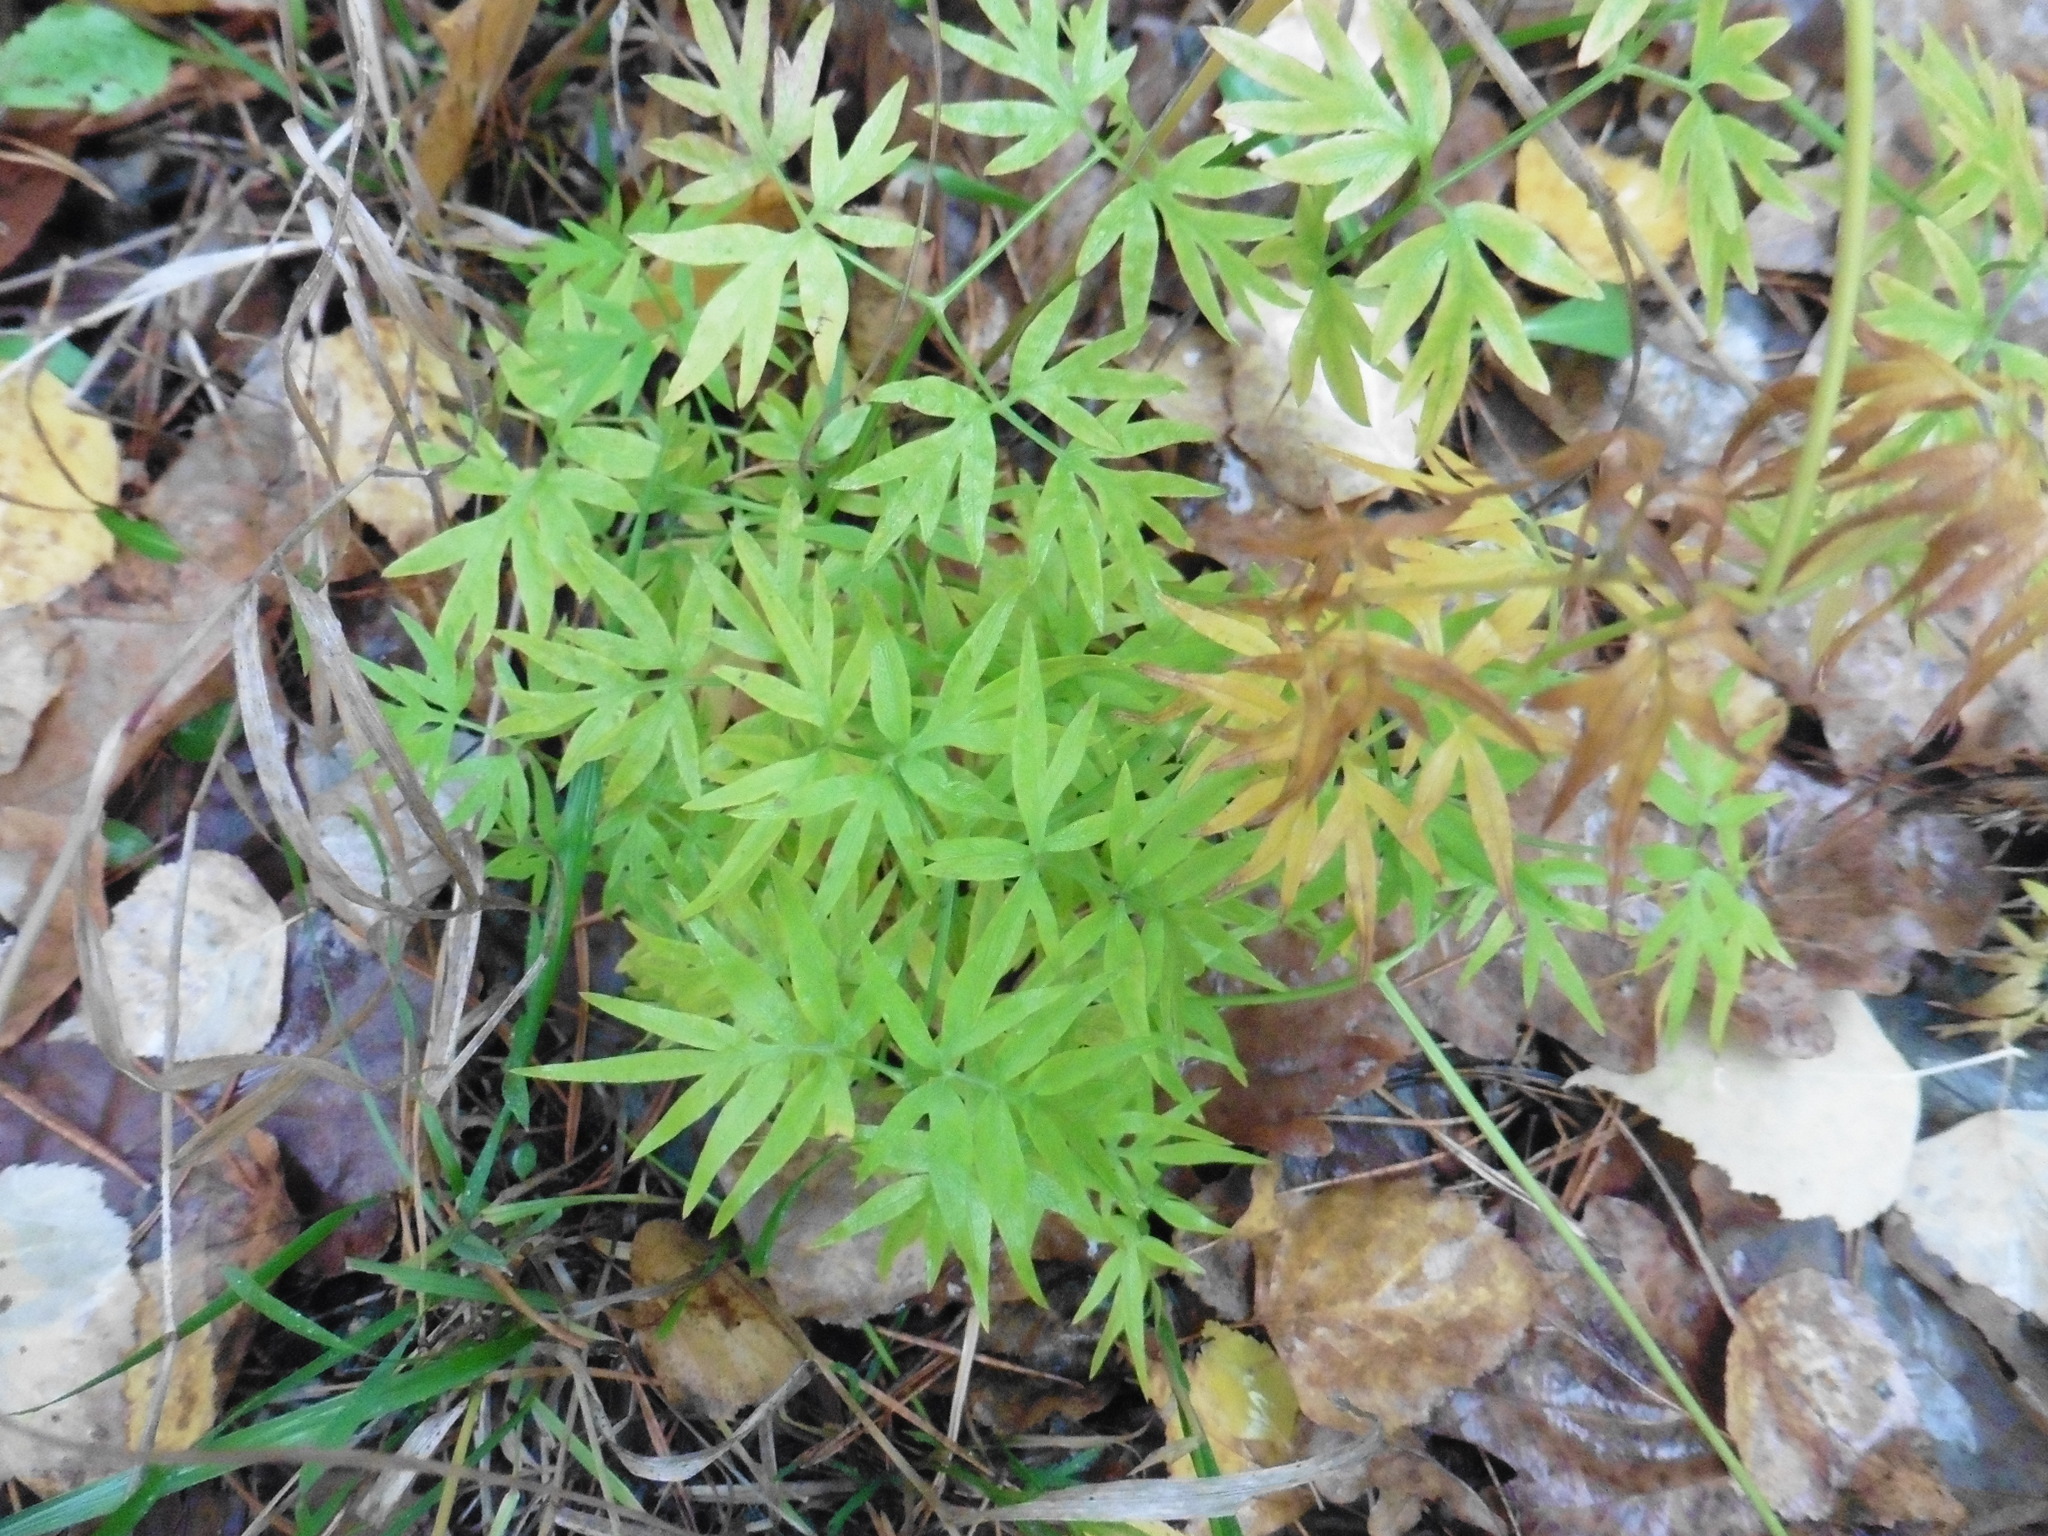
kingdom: Plantae
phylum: Tracheophyta
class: Magnoliopsida
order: Apiales
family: Apiaceae
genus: Cenolophium
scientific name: Cenolophium fischeri
